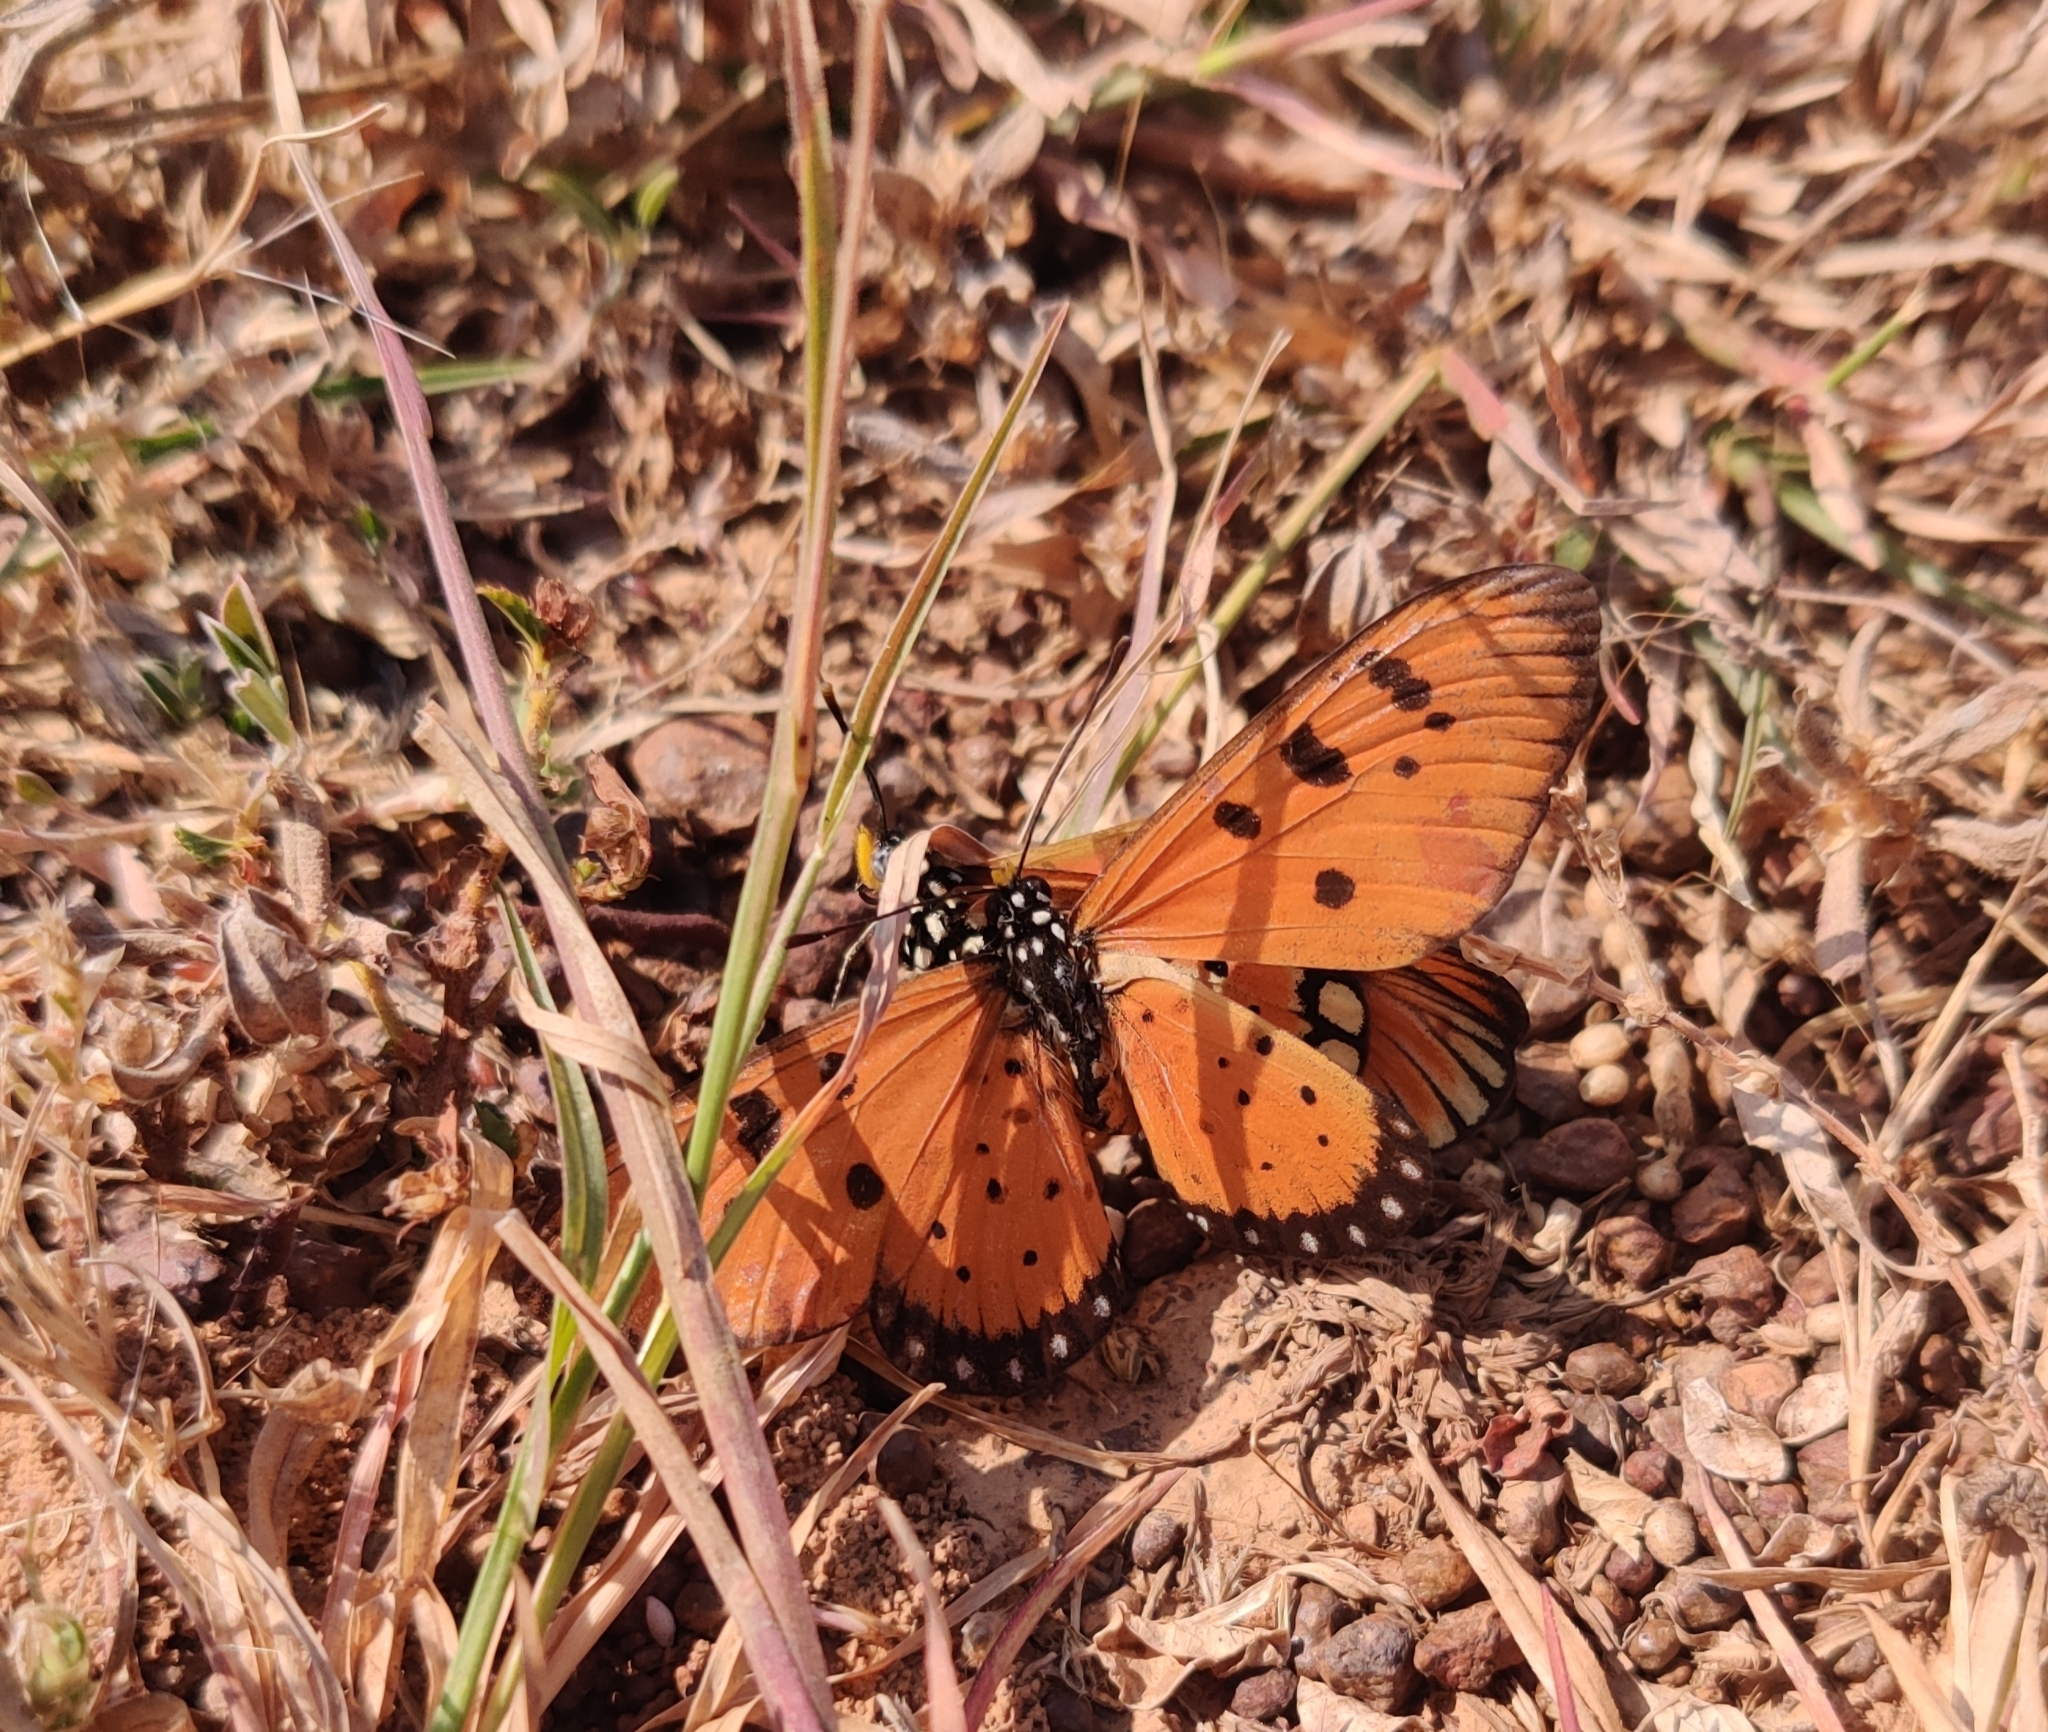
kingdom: Animalia
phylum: Arthropoda
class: Insecta
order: Lepidoptera
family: Nymphalidae
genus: Acraea
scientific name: Acraea terpsicore
